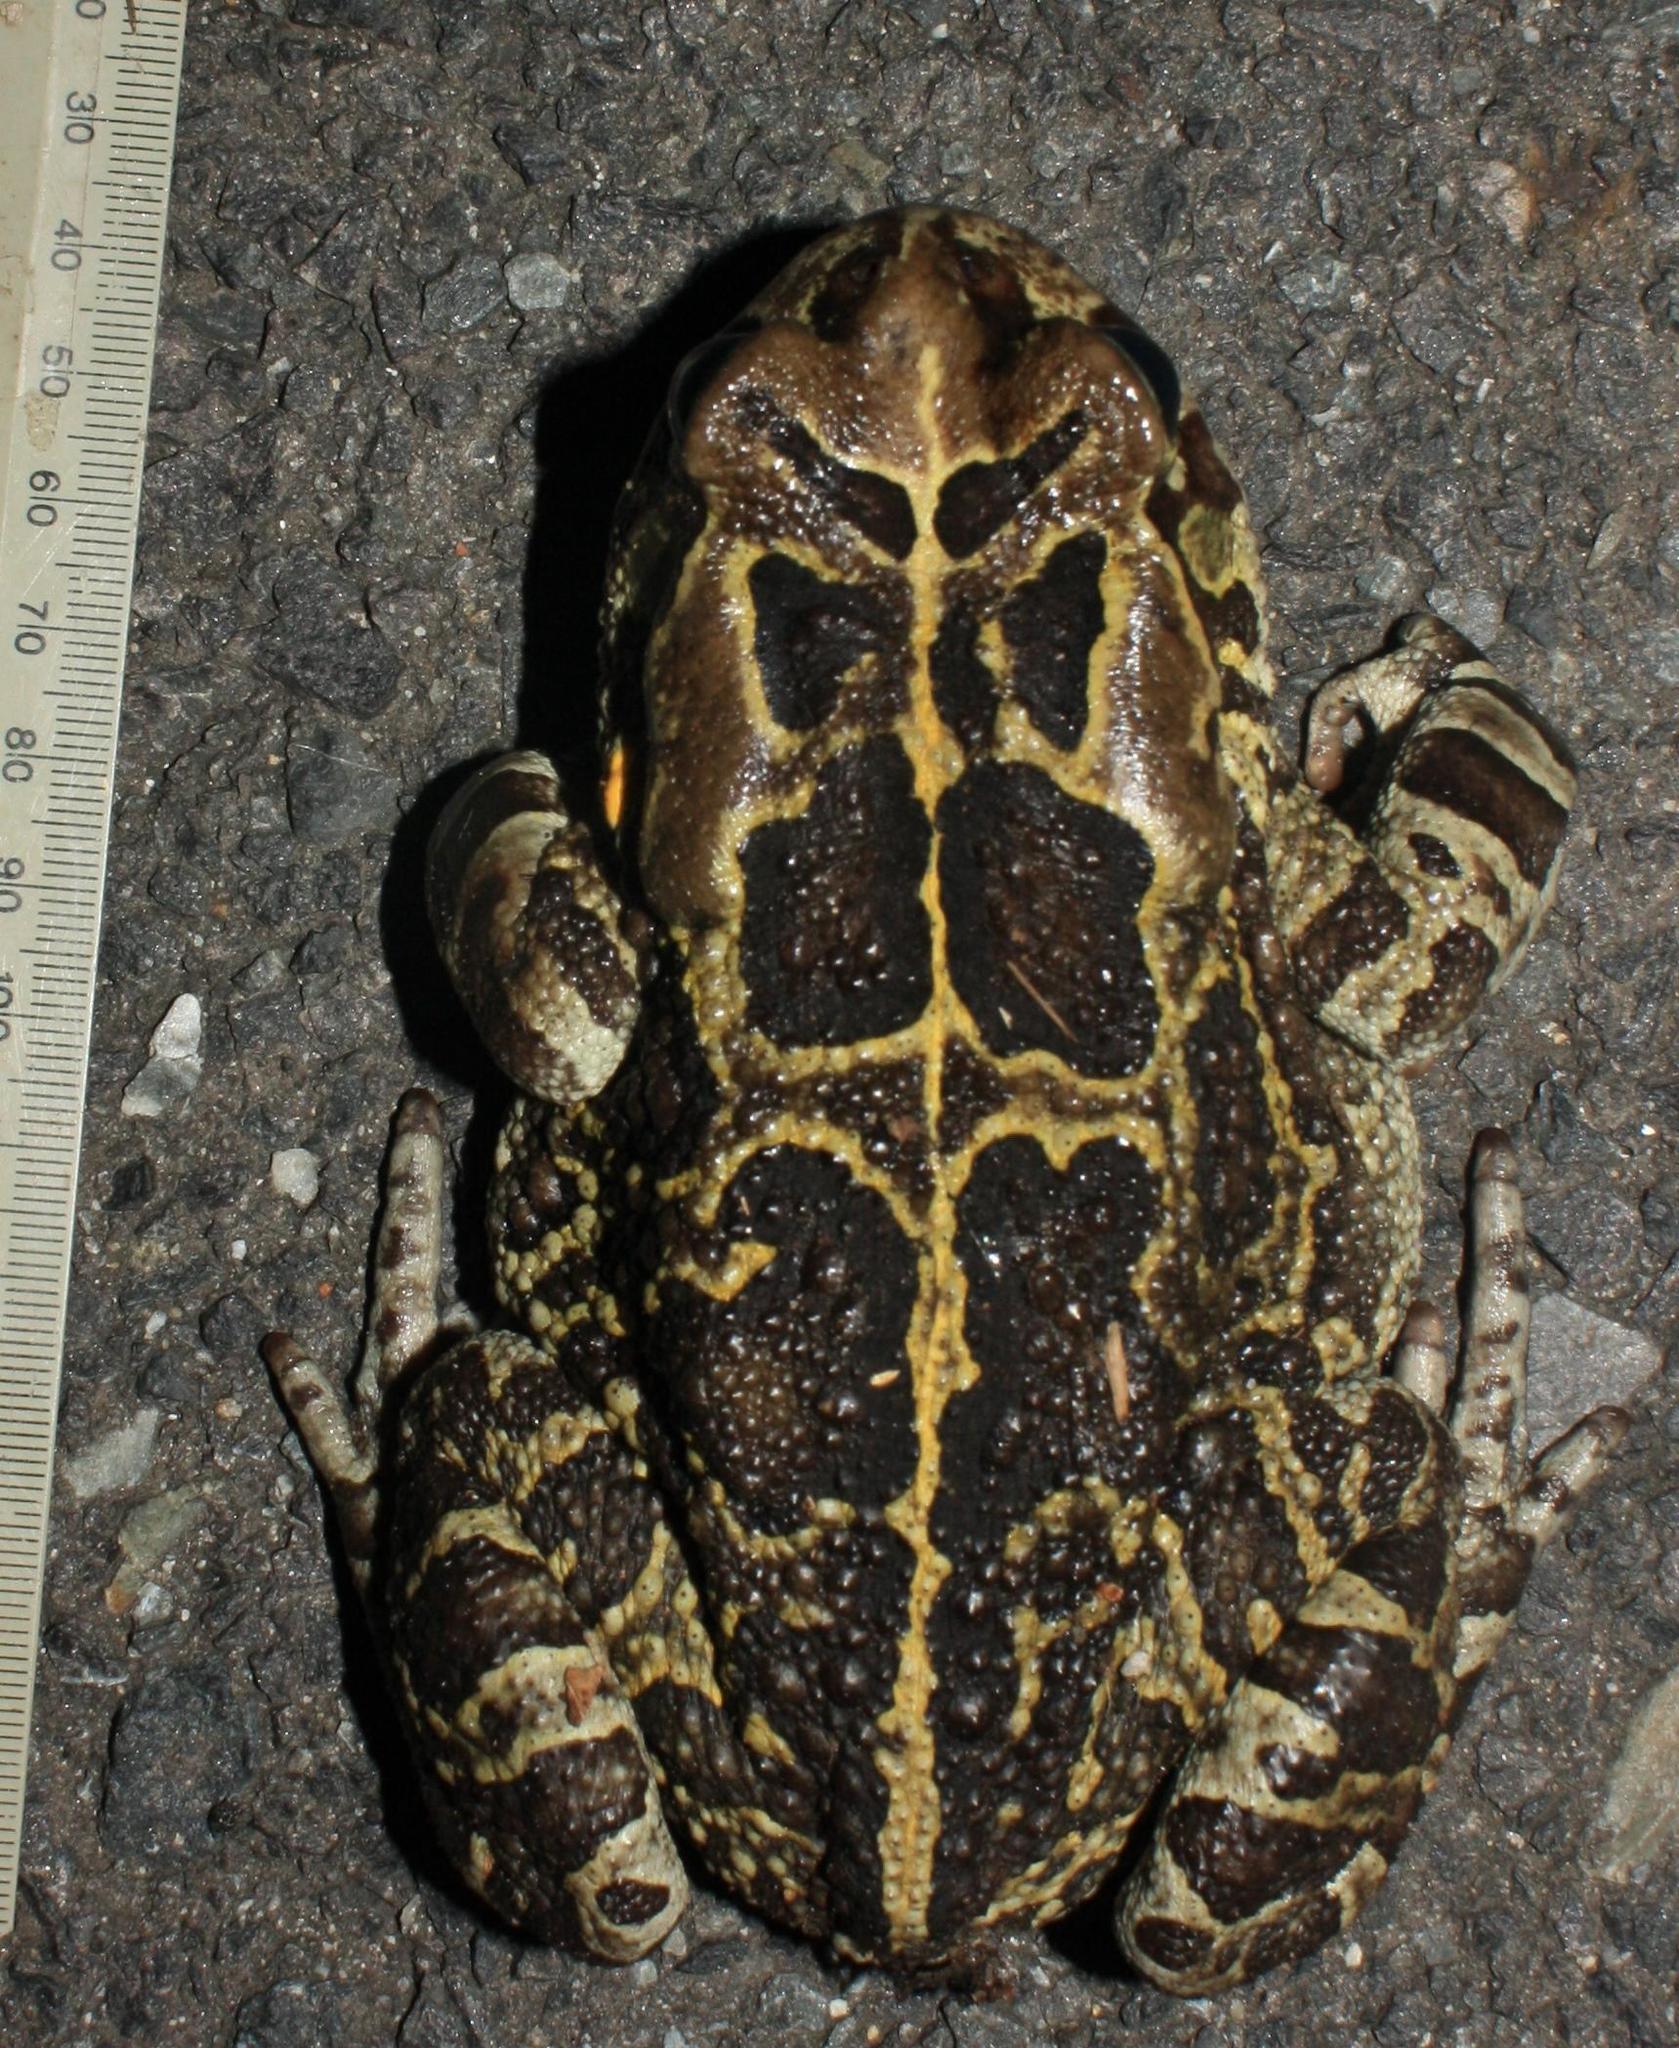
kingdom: Animalia
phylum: Chordata
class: Amphibia
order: Anura
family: Bufonidae
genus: Sclerophrys
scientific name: Sclerophrys pantherina
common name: Panther toad
